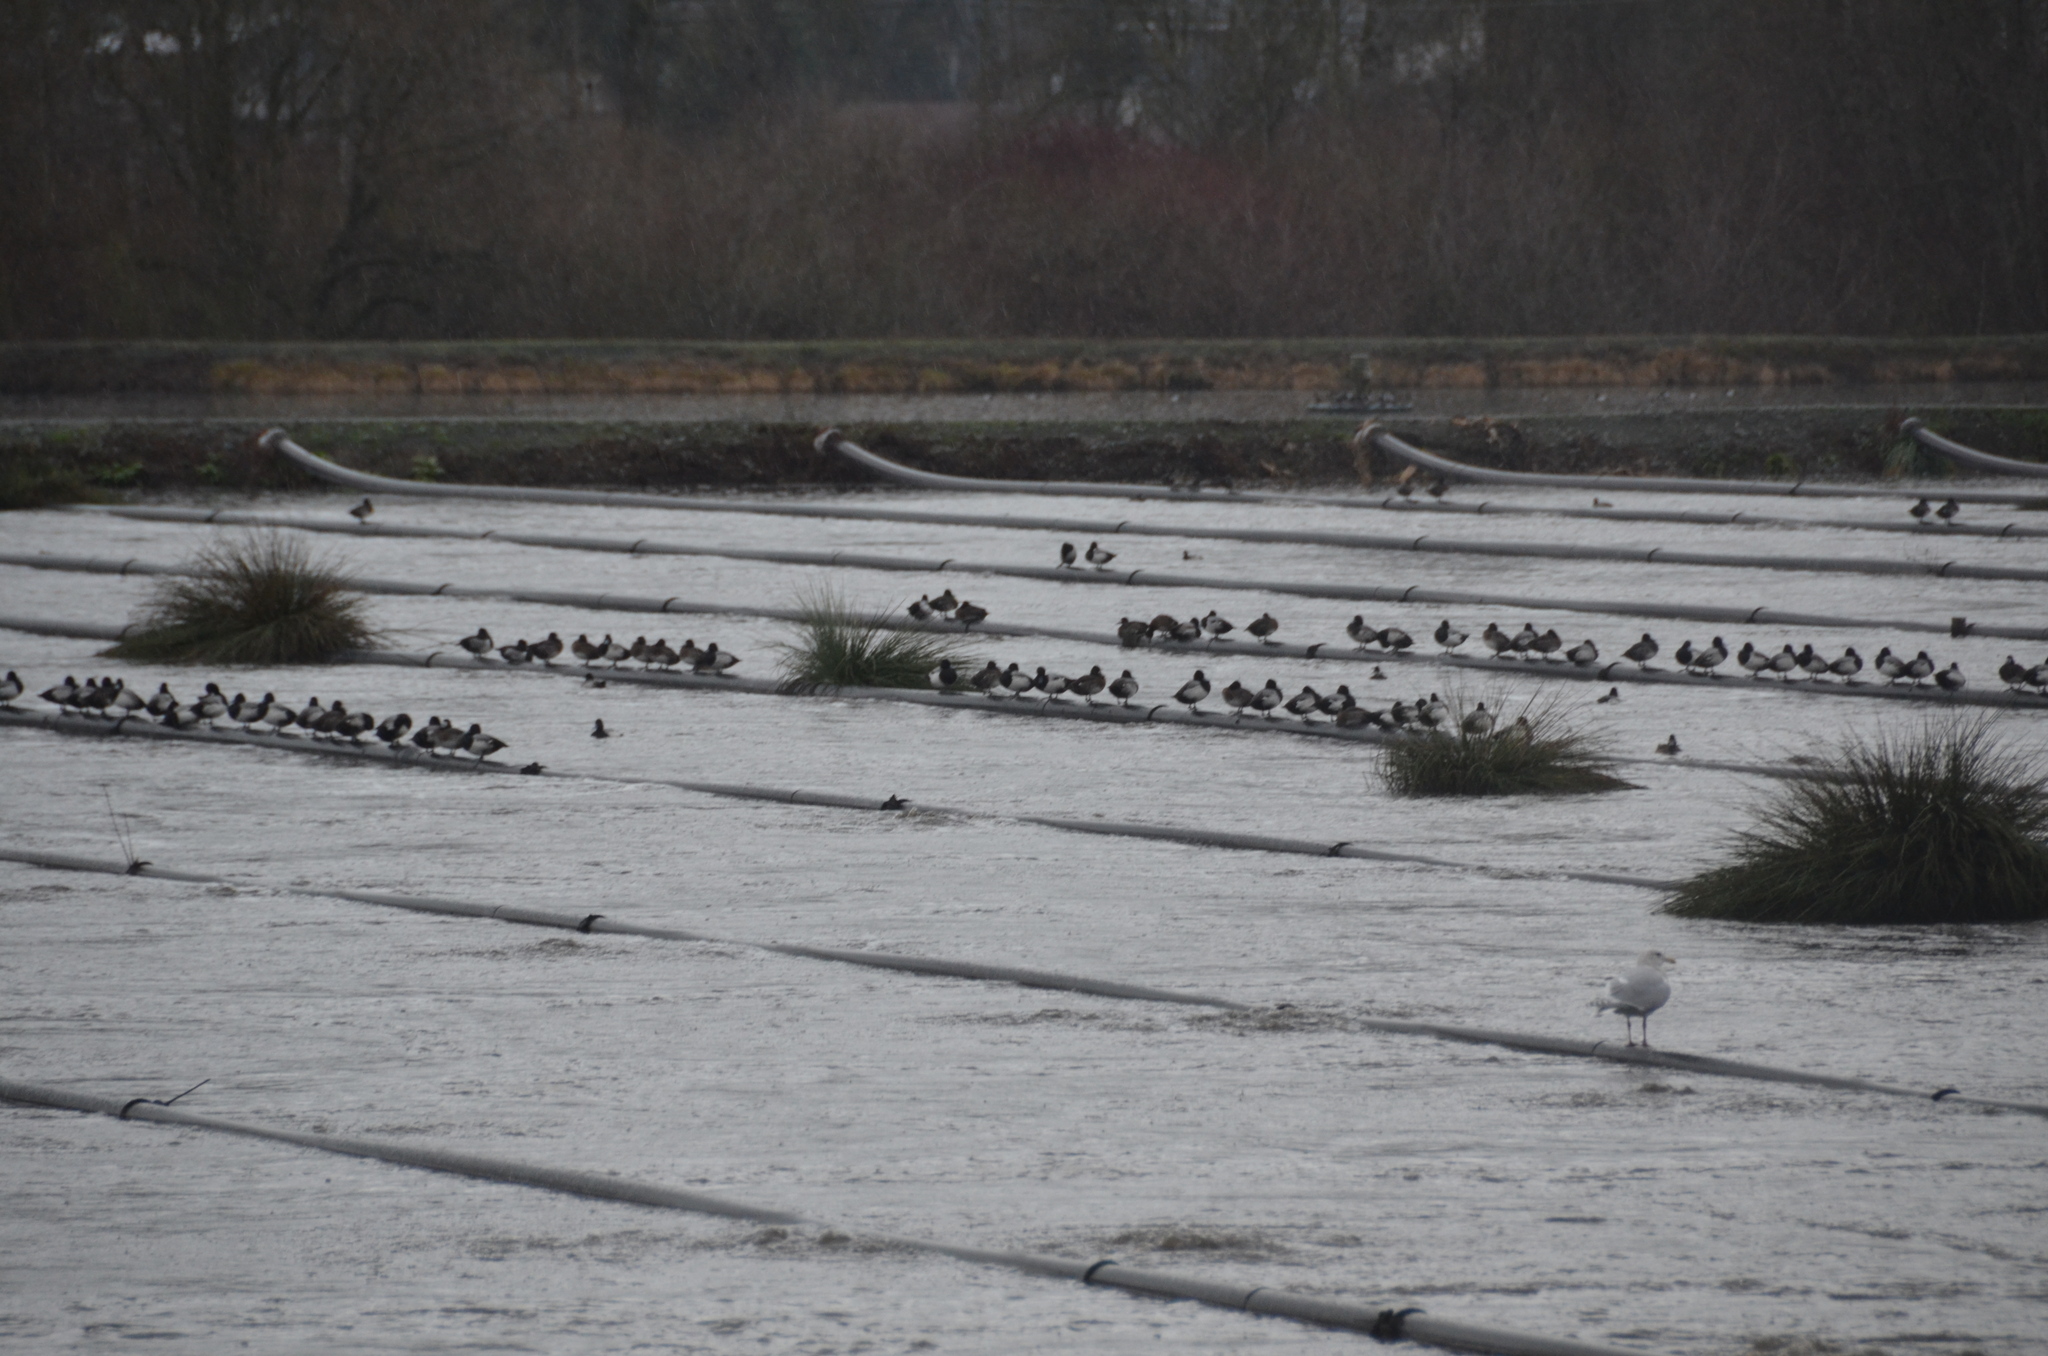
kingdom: Animalia
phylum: Chordata
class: Aves
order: Anseriformes
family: Anatidae
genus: Aythya
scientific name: Aythya affinis
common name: Lesser scaup
